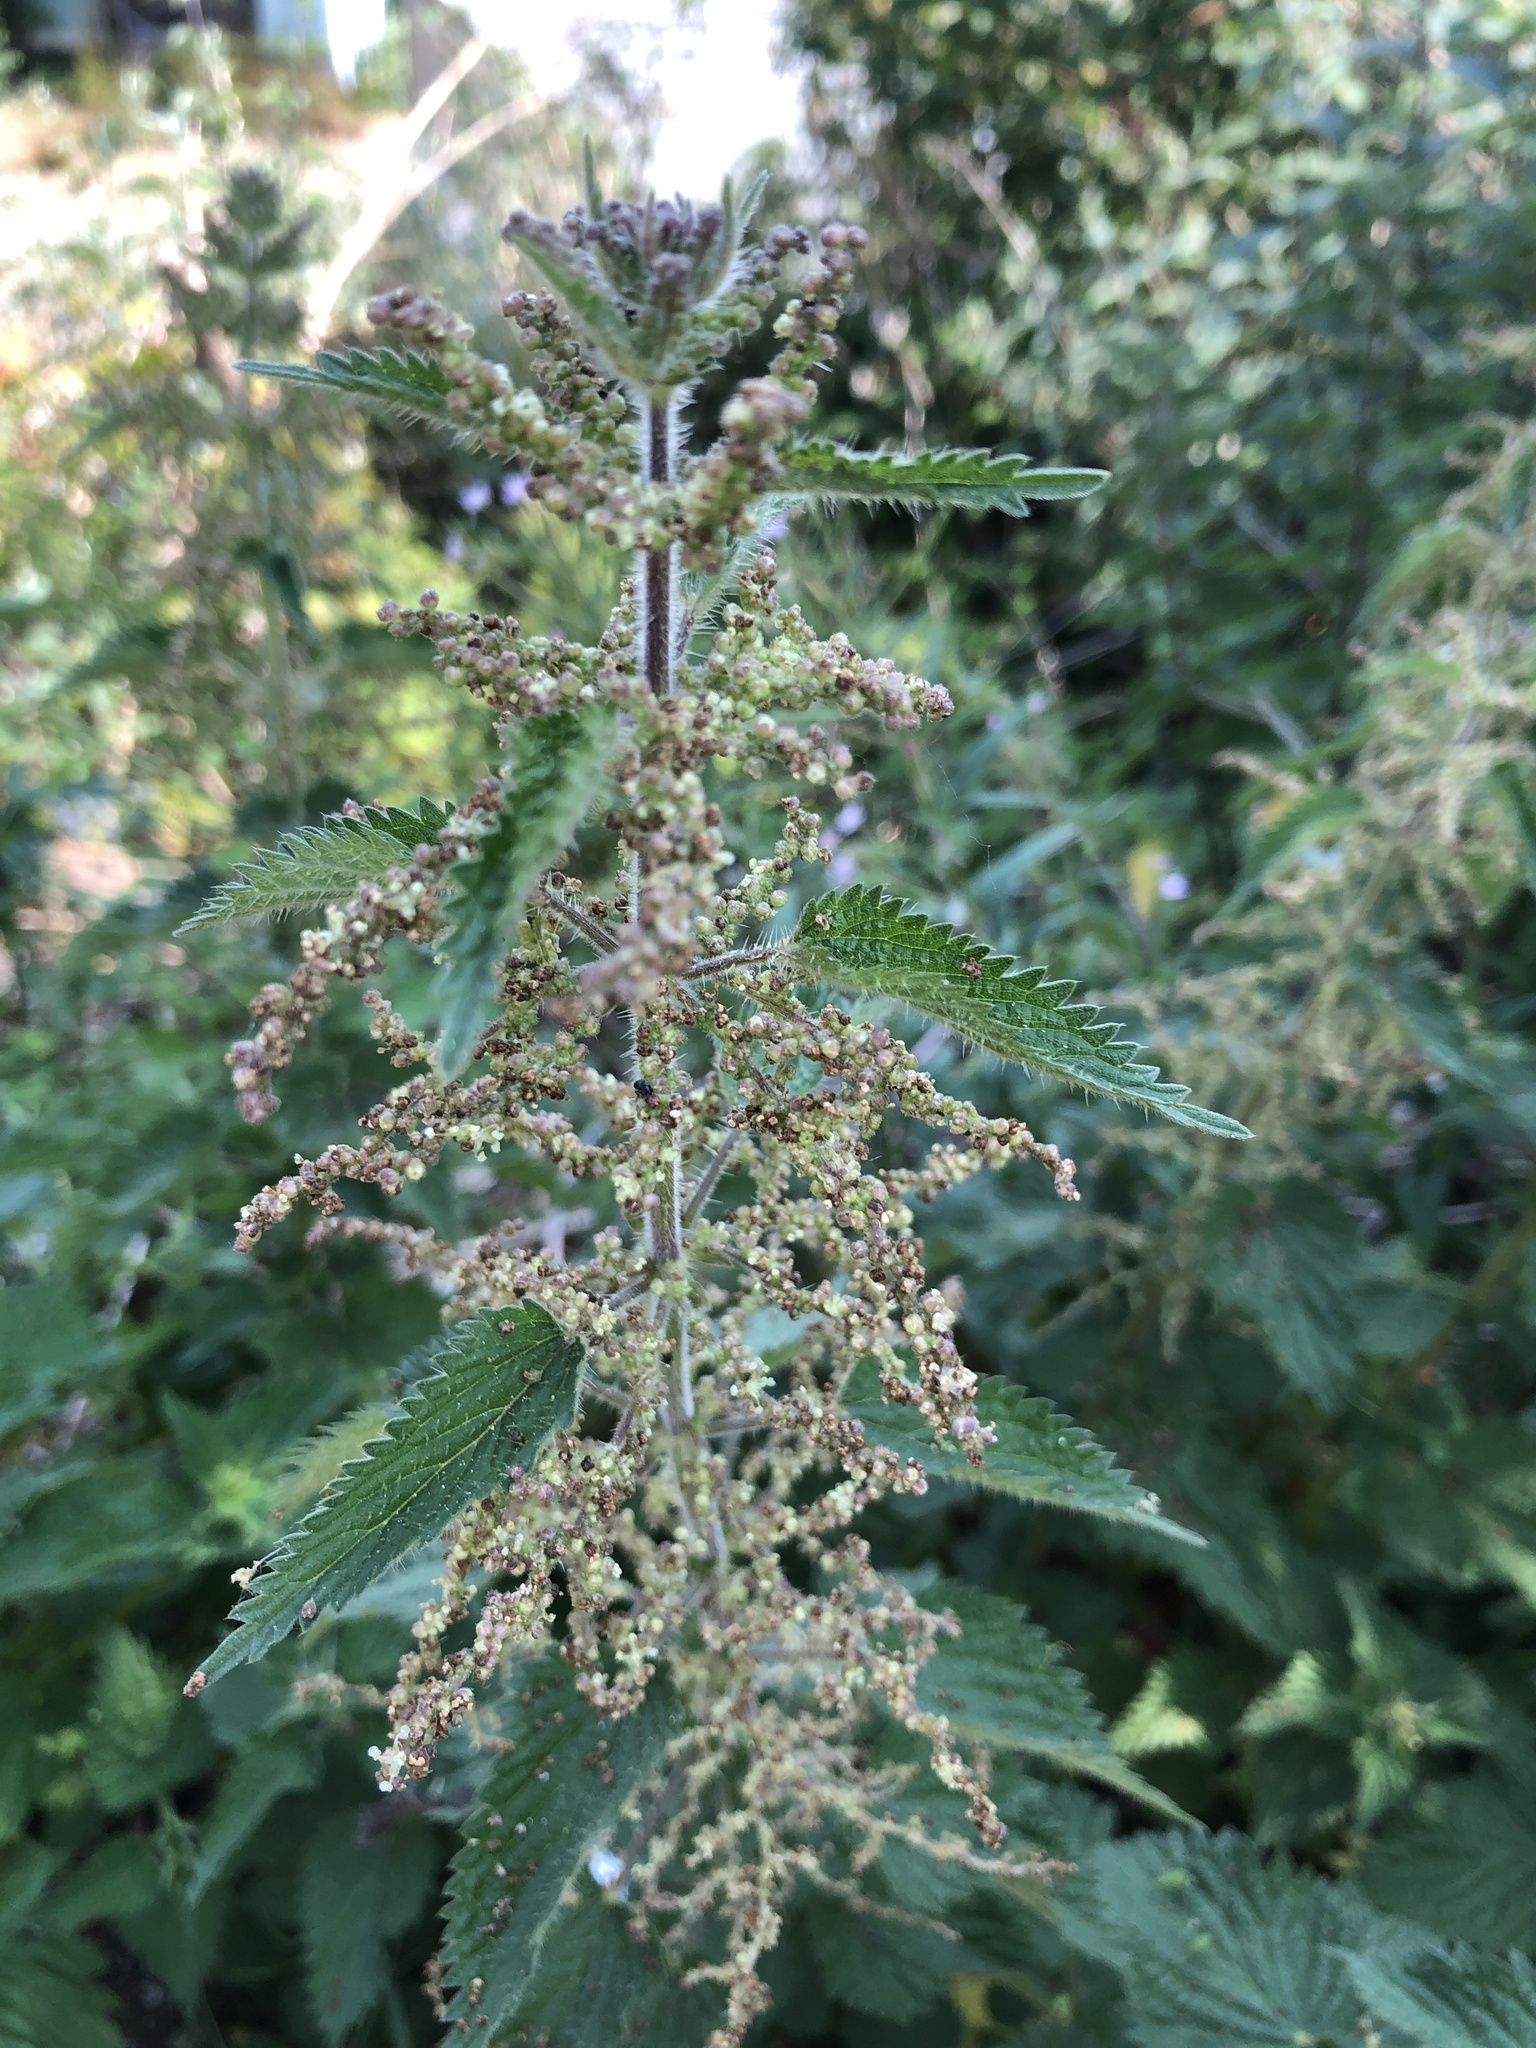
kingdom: Plantae
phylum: Tracheophyta
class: Magnoliopsida
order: Rosales
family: Urticaceae
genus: Urtica
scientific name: Urtica dioica
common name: Common nettle
